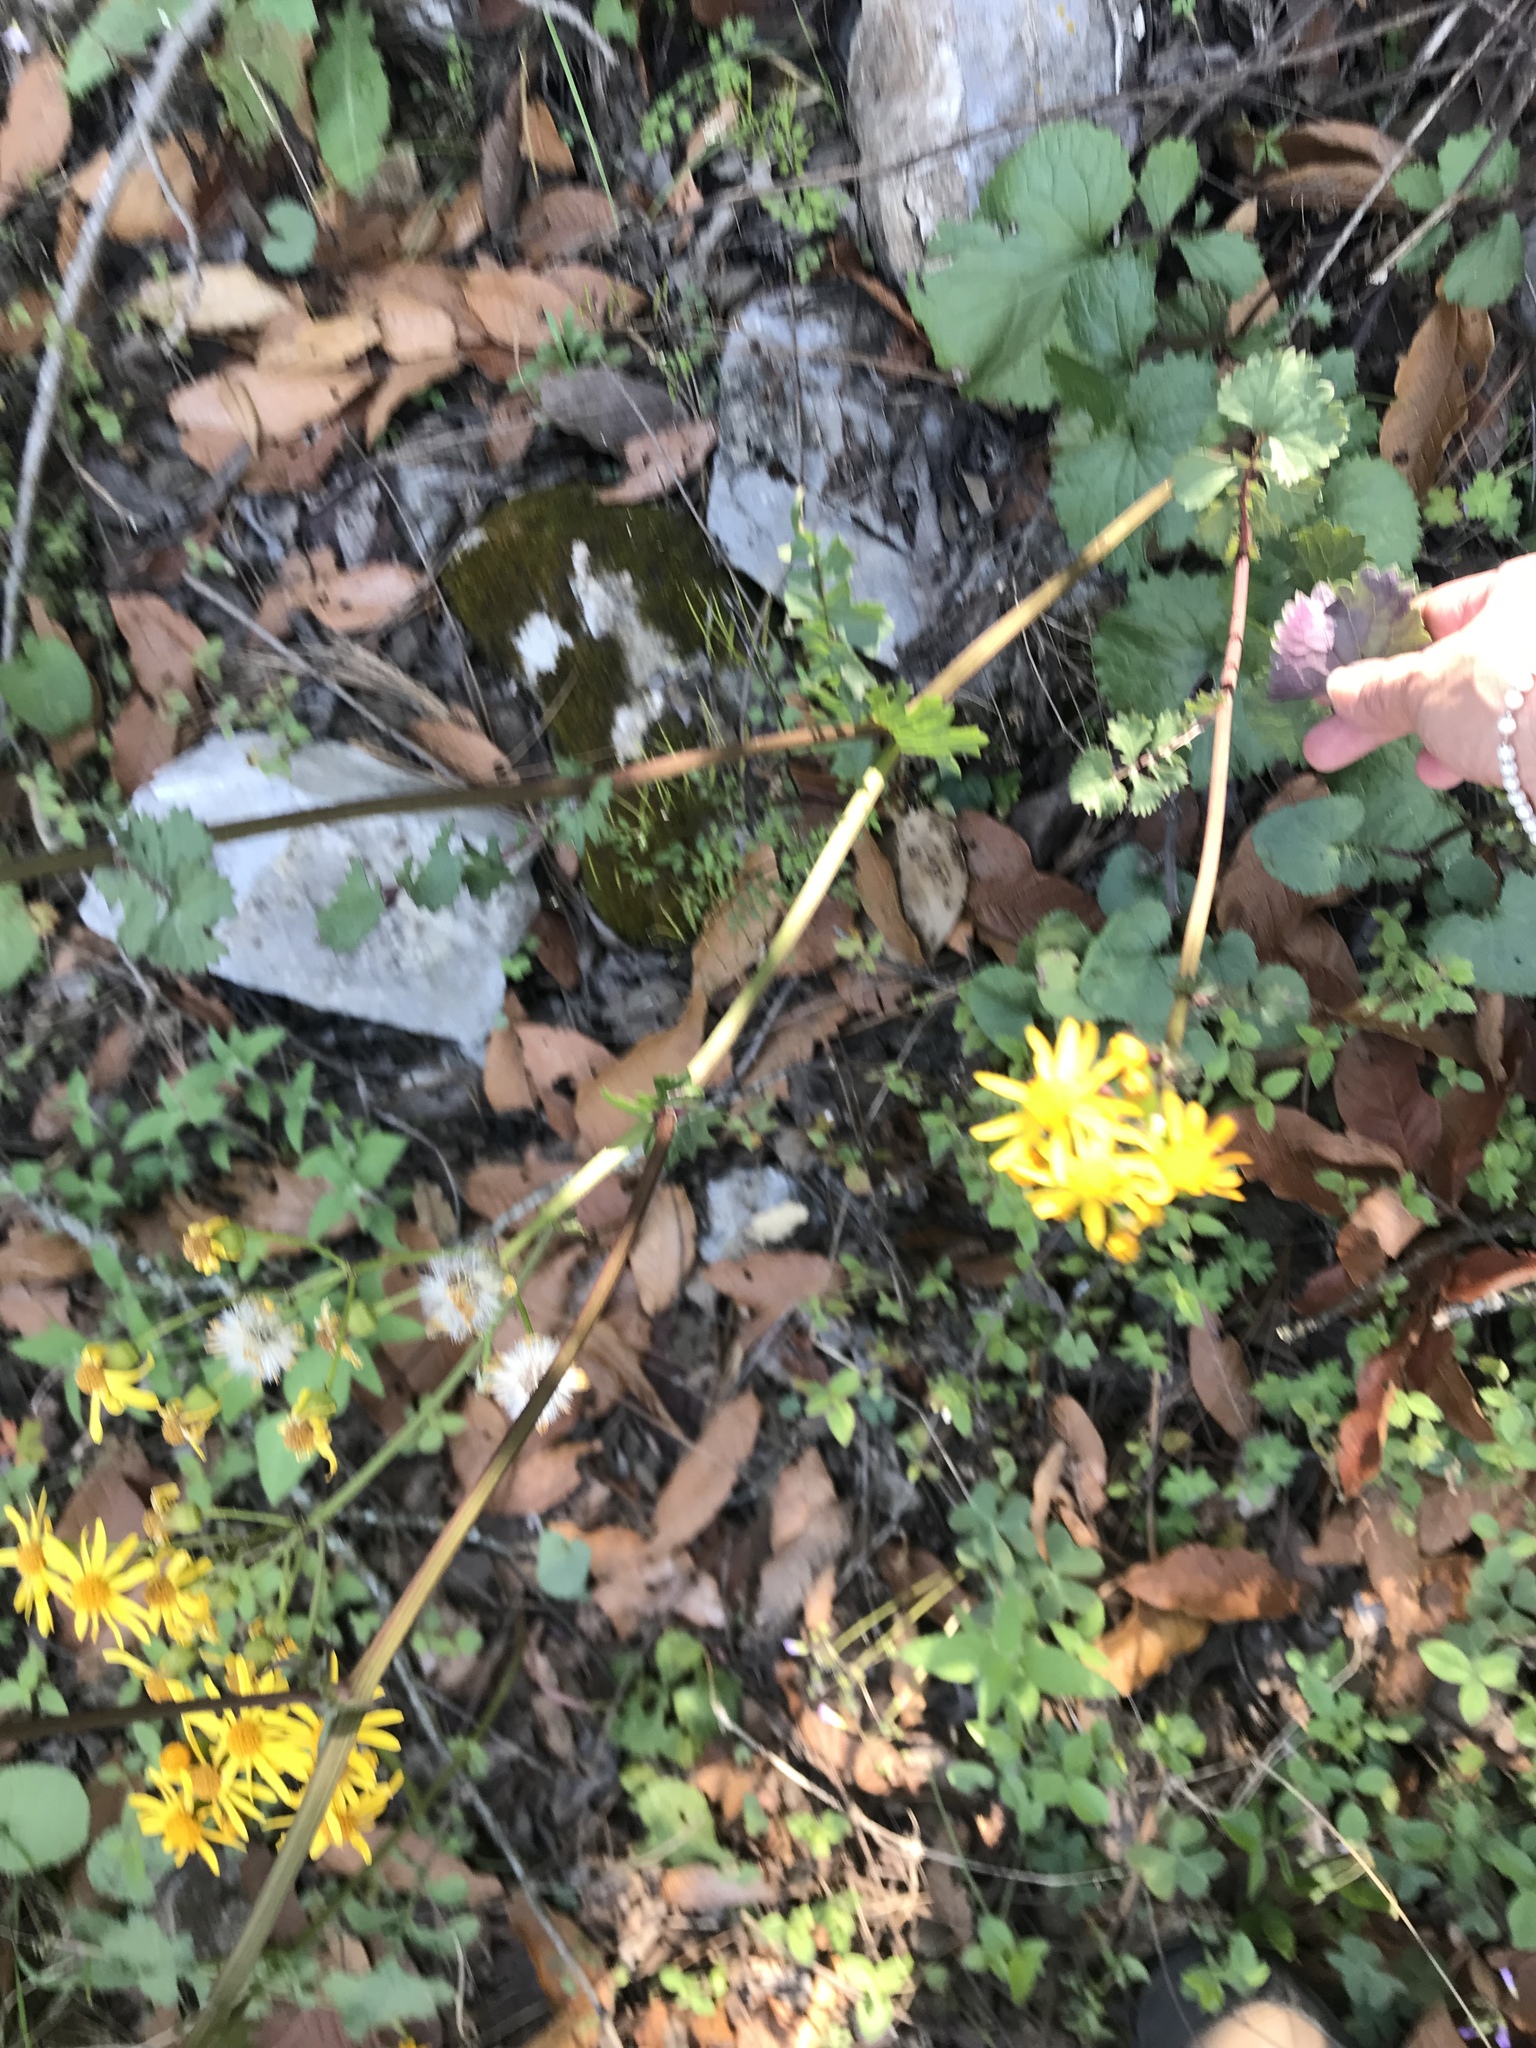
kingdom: Plantae
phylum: Tracheophyta
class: Magnoliopsida
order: Asterales
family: Asteraceae
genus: Packera
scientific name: Packera coahuilensis
